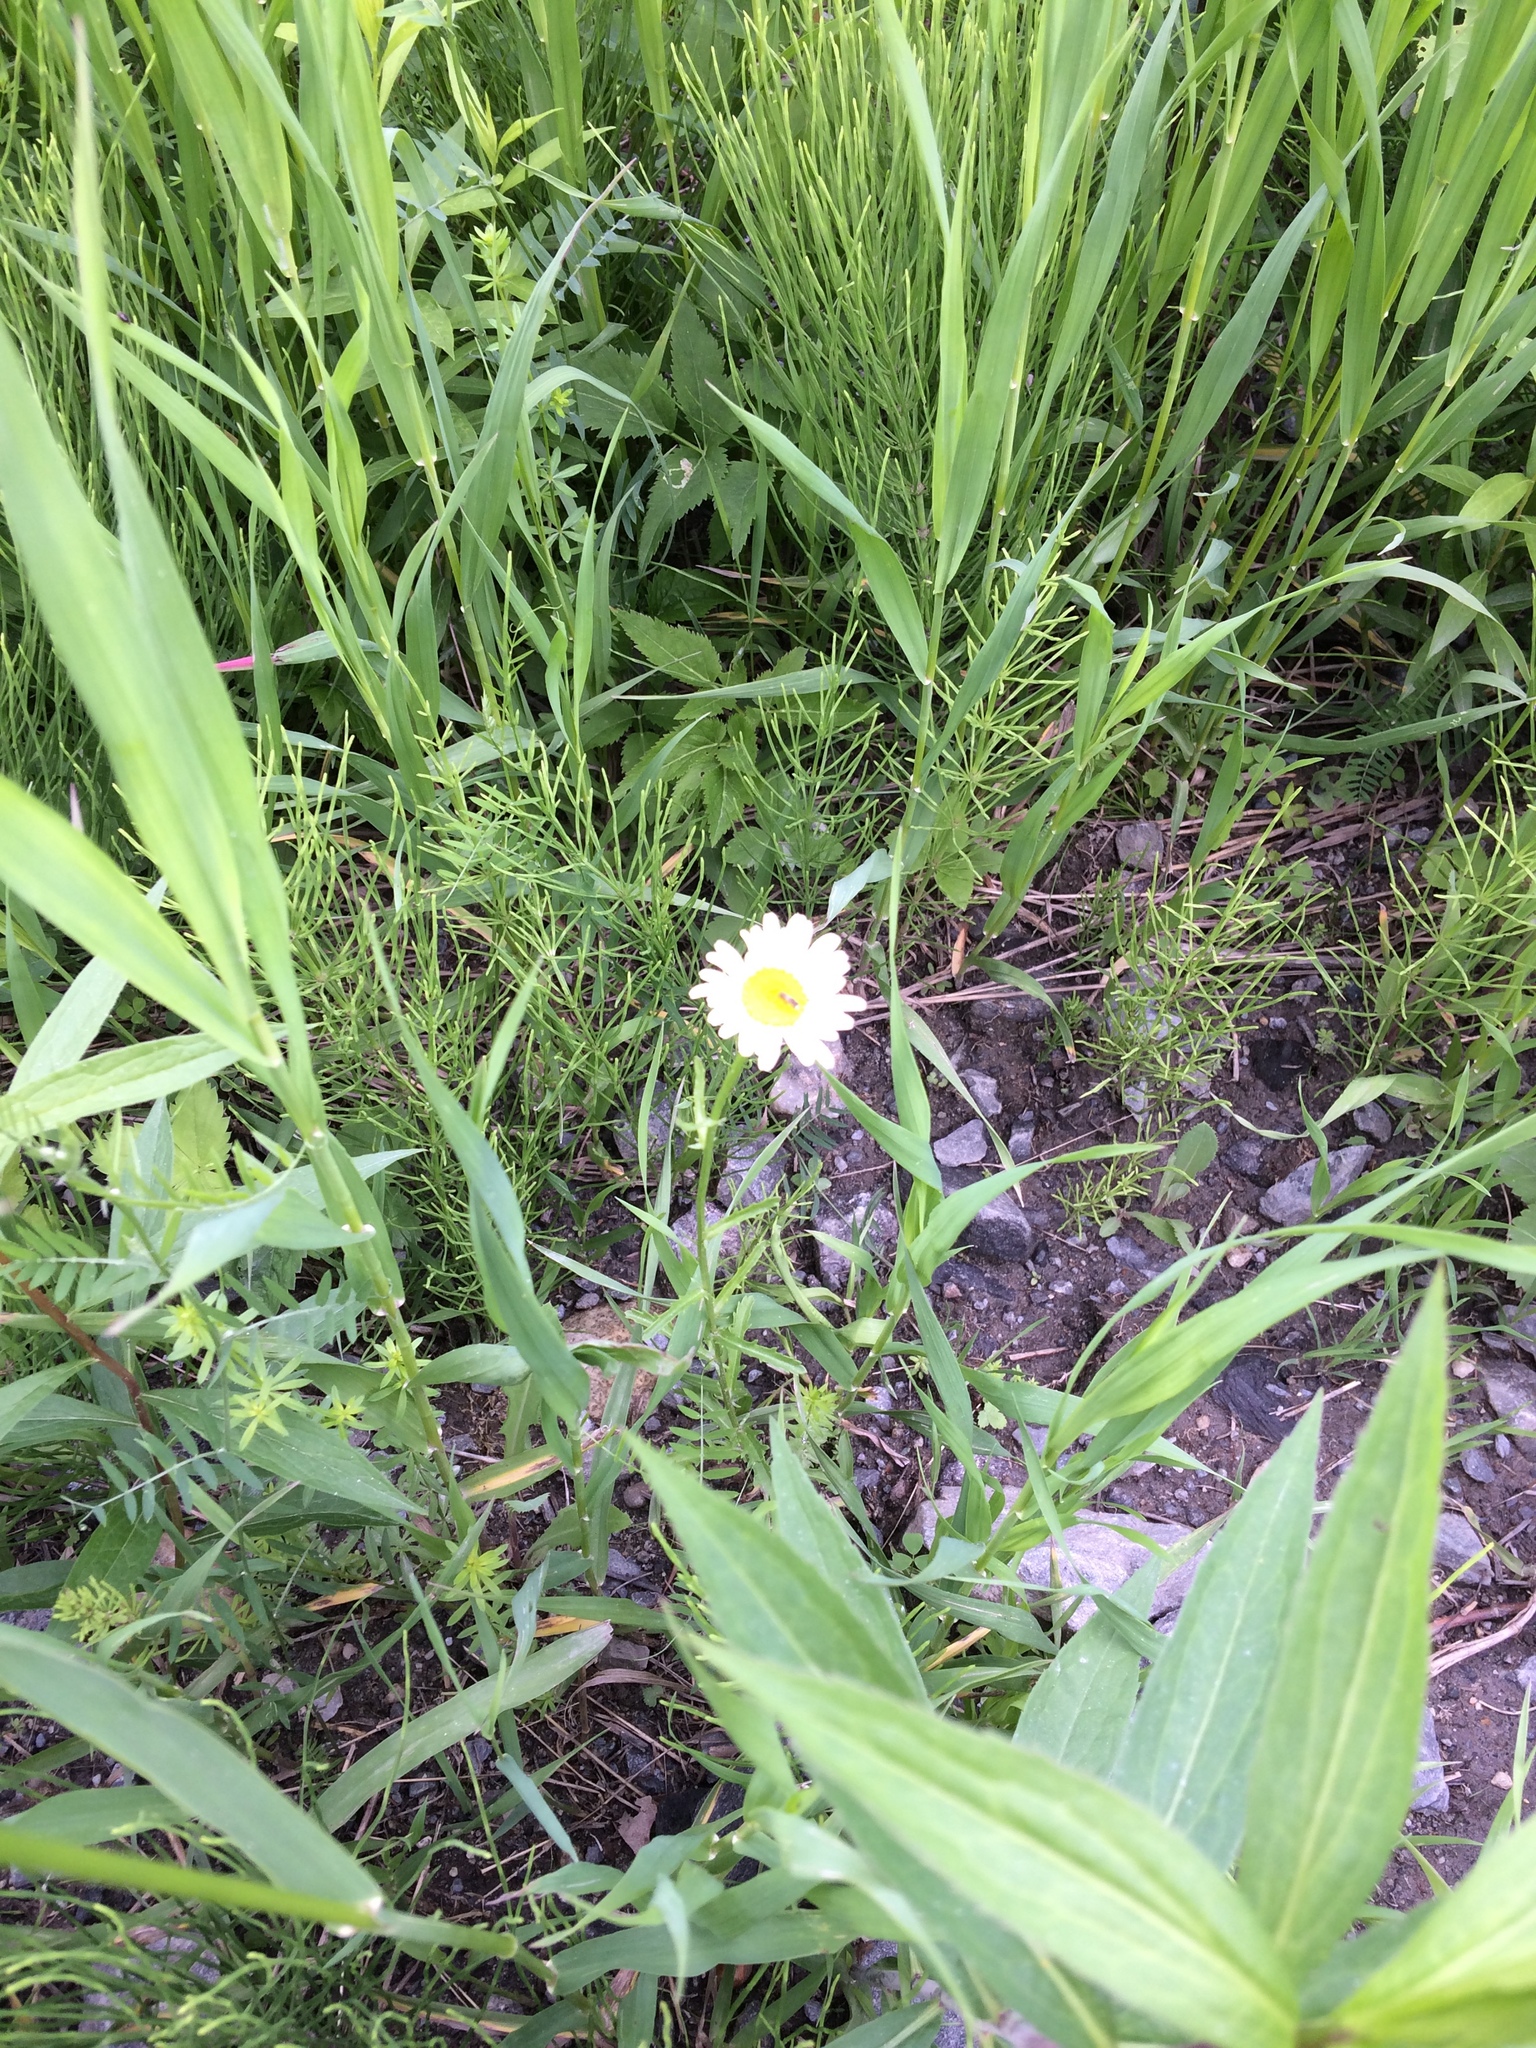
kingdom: Plantae
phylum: Tracheophyta
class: Magnoliopsida
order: Asterales
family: Asteraceae
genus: Leucanthemum
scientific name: Leucanthemum vulgare
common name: Oxeye daisy
